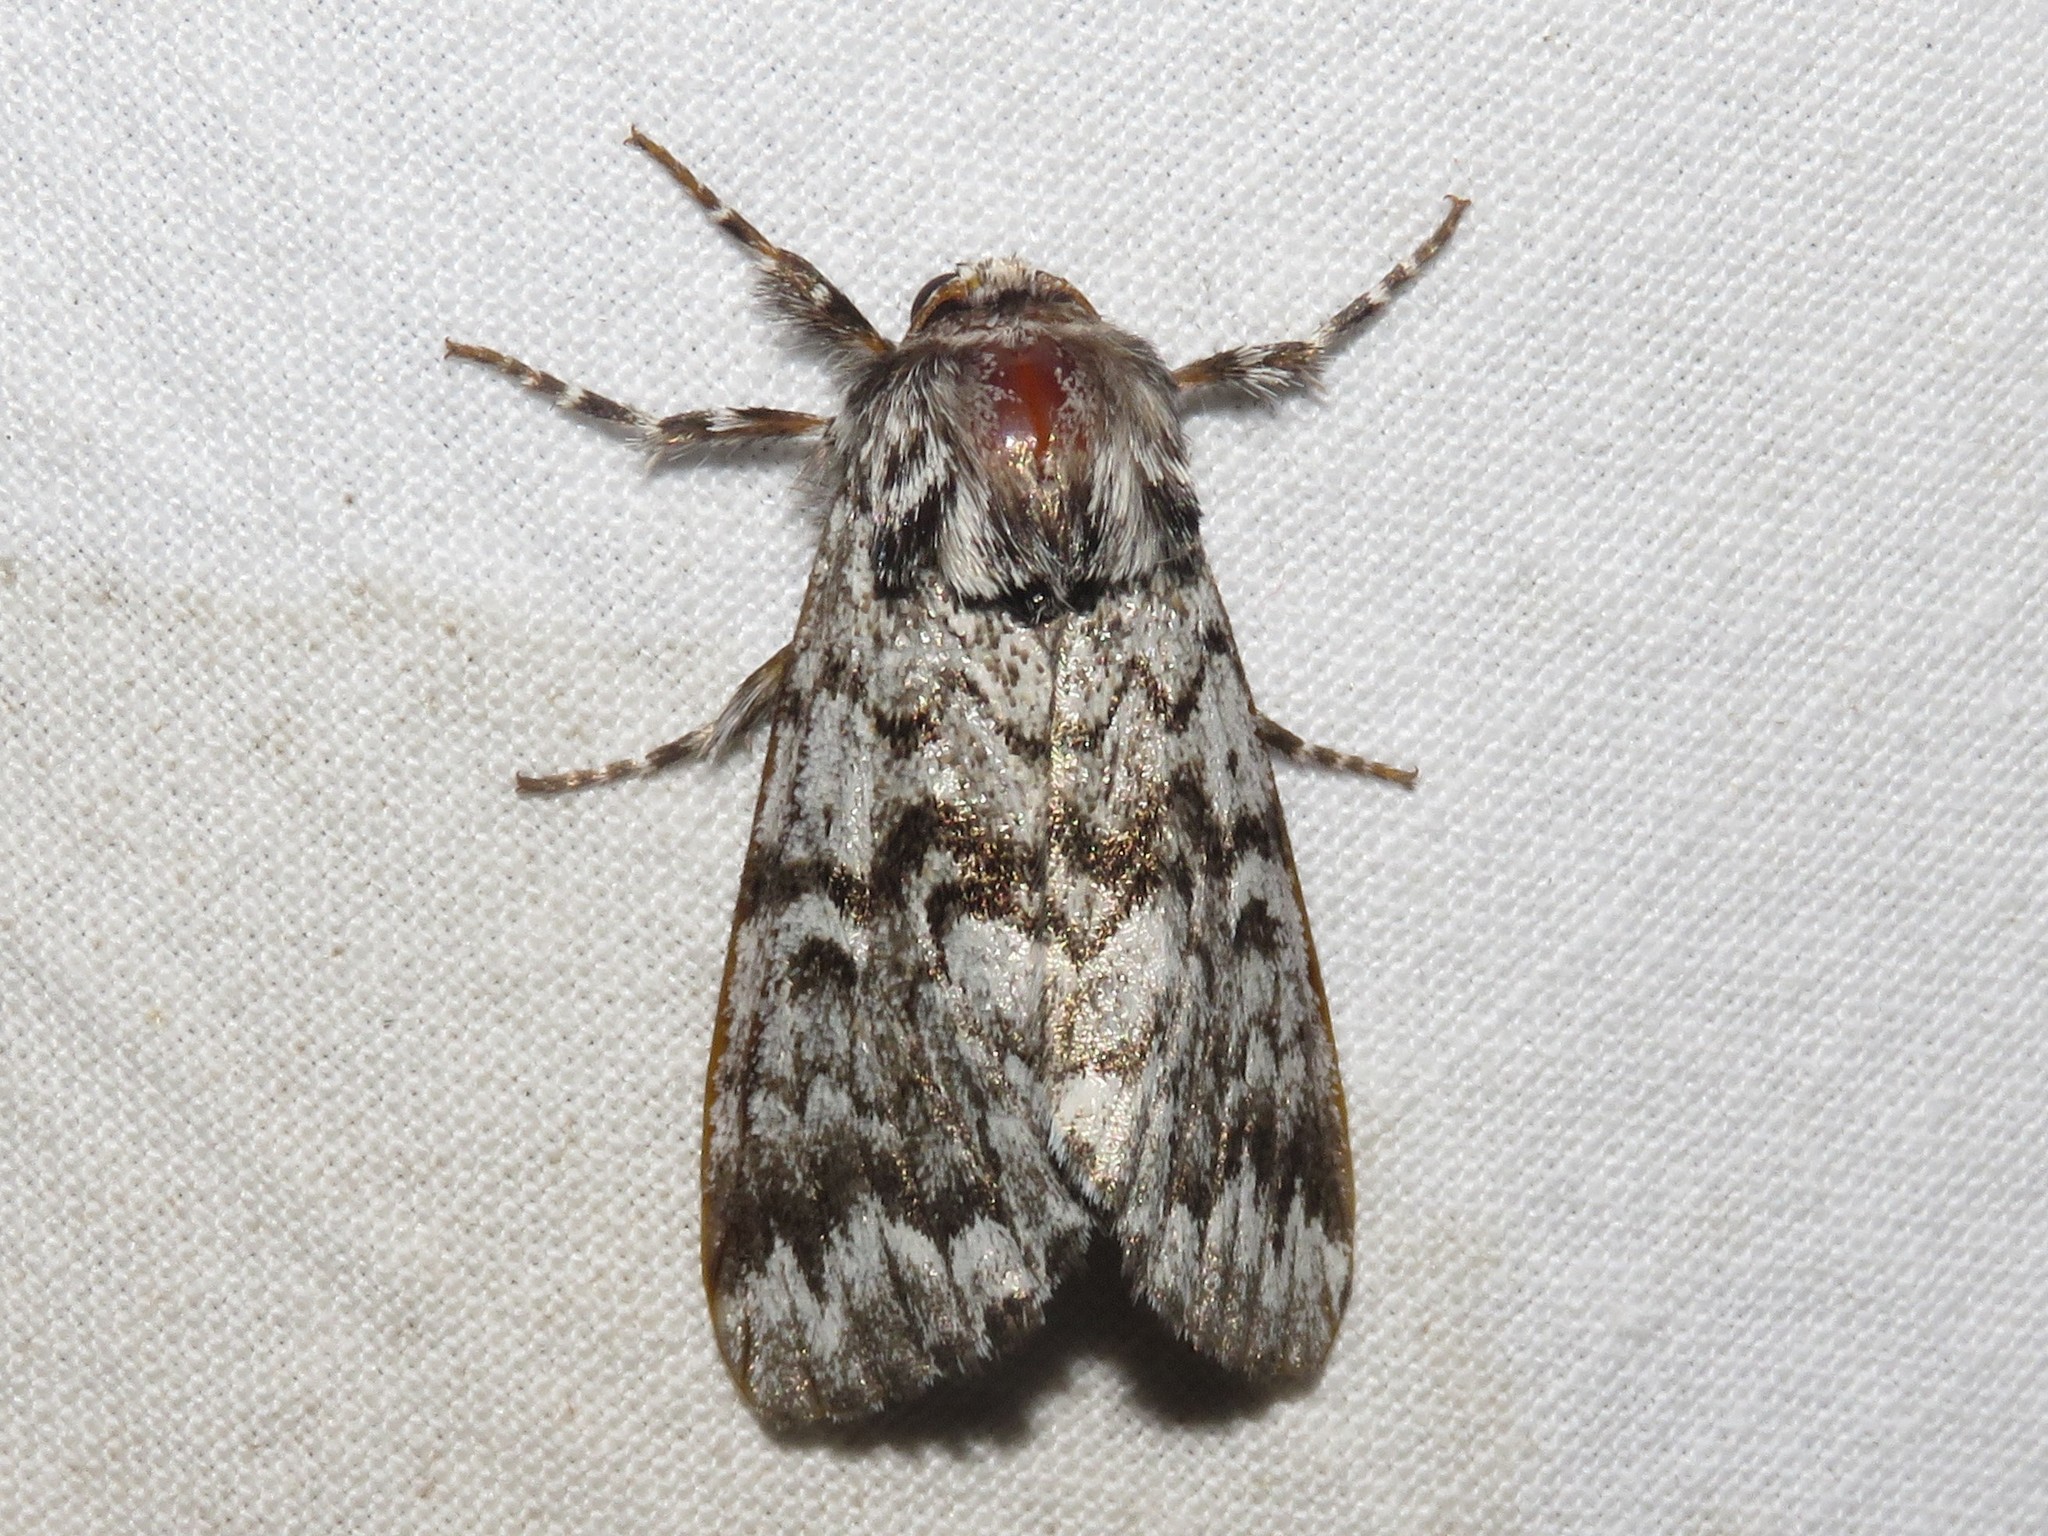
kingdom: Animalia
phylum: Arthropoda
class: Insecta
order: Lepidoptera
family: Noctuidae
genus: Panthea
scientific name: Panthea acronyctoides
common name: Black zigzag moth
